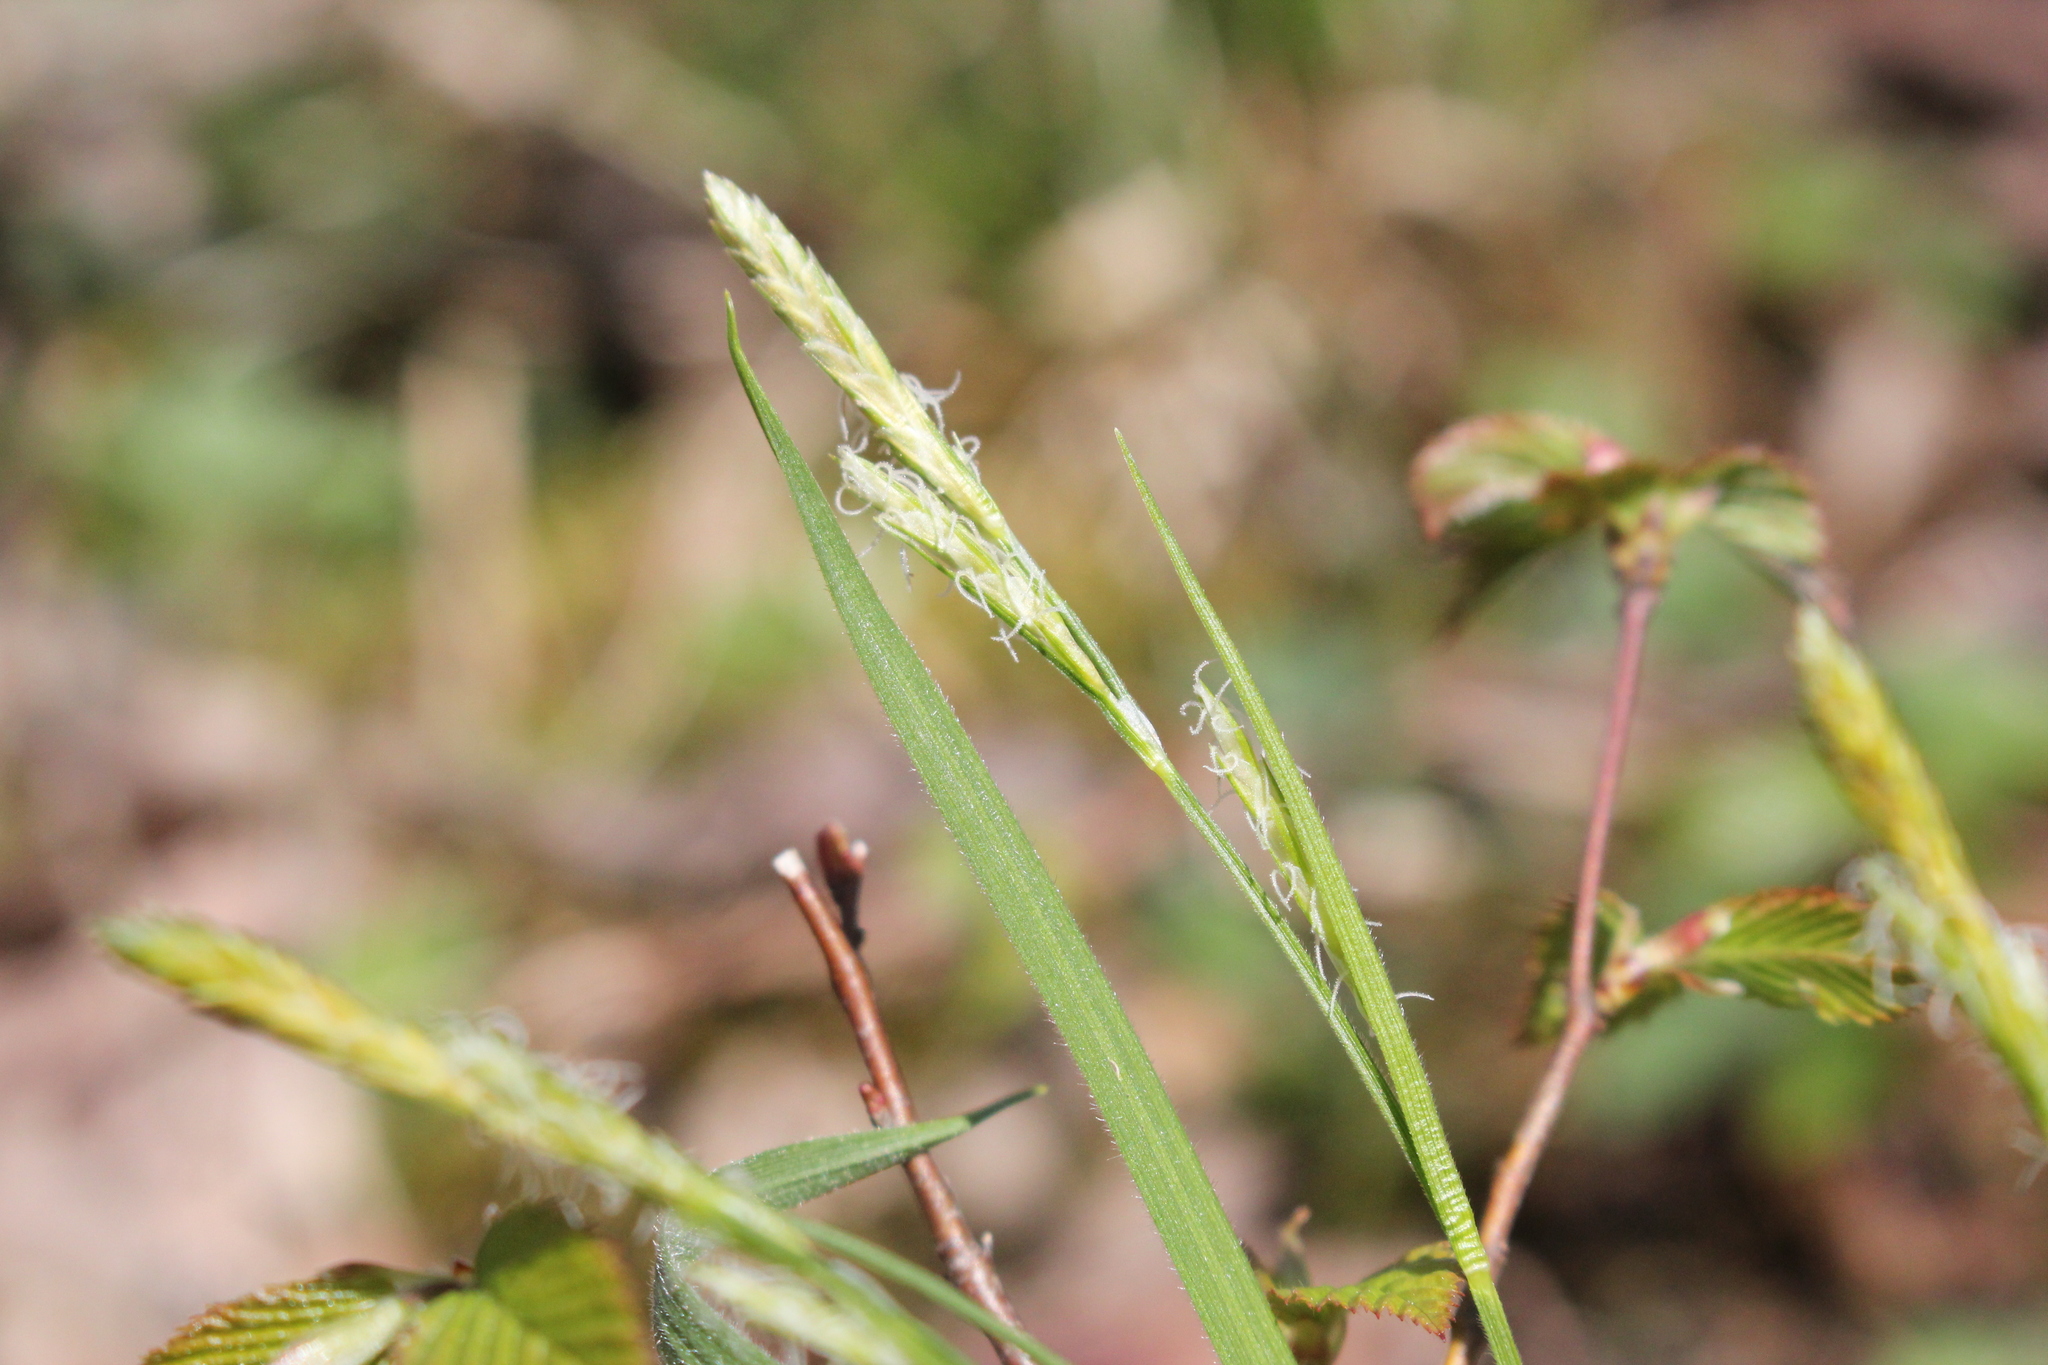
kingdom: Plantae
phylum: Tracheophyta
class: Liliopsida
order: Poales
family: Cyperaceae
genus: Carex
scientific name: Carex hirtifolia
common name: Hairy sedge
